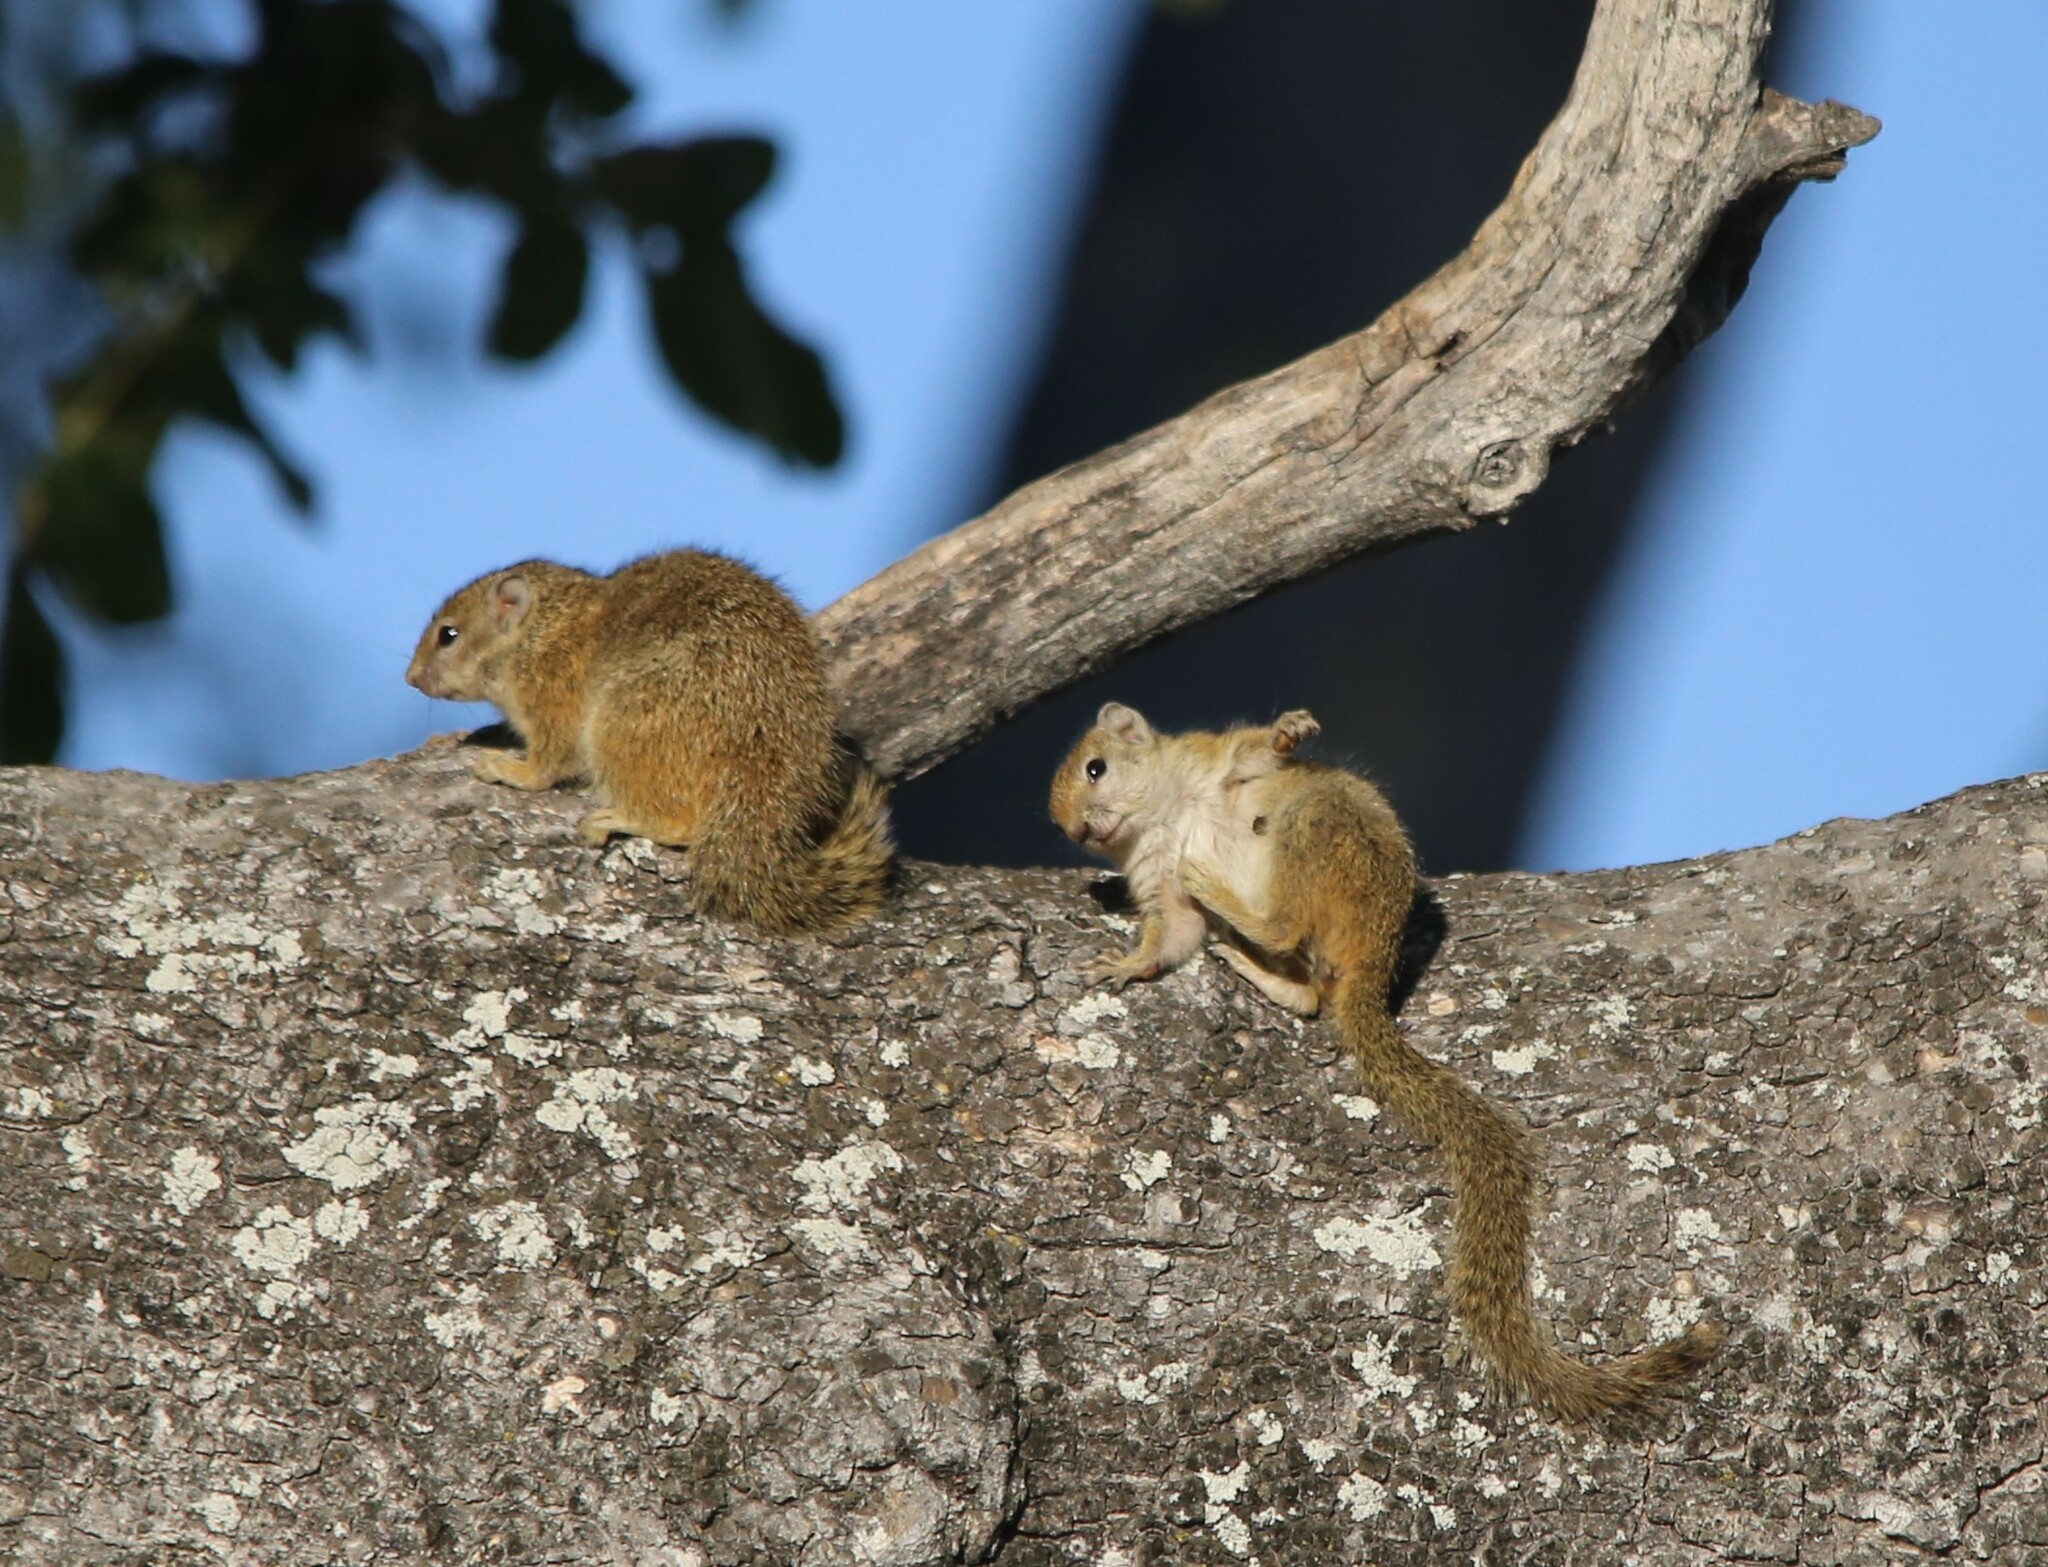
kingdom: Animalia
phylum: Chordata
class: Mammalia
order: Rodentia
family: Sciuridae
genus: Paraxerus
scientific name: Paraxerus cepapi
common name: Smith's bush squirrel
